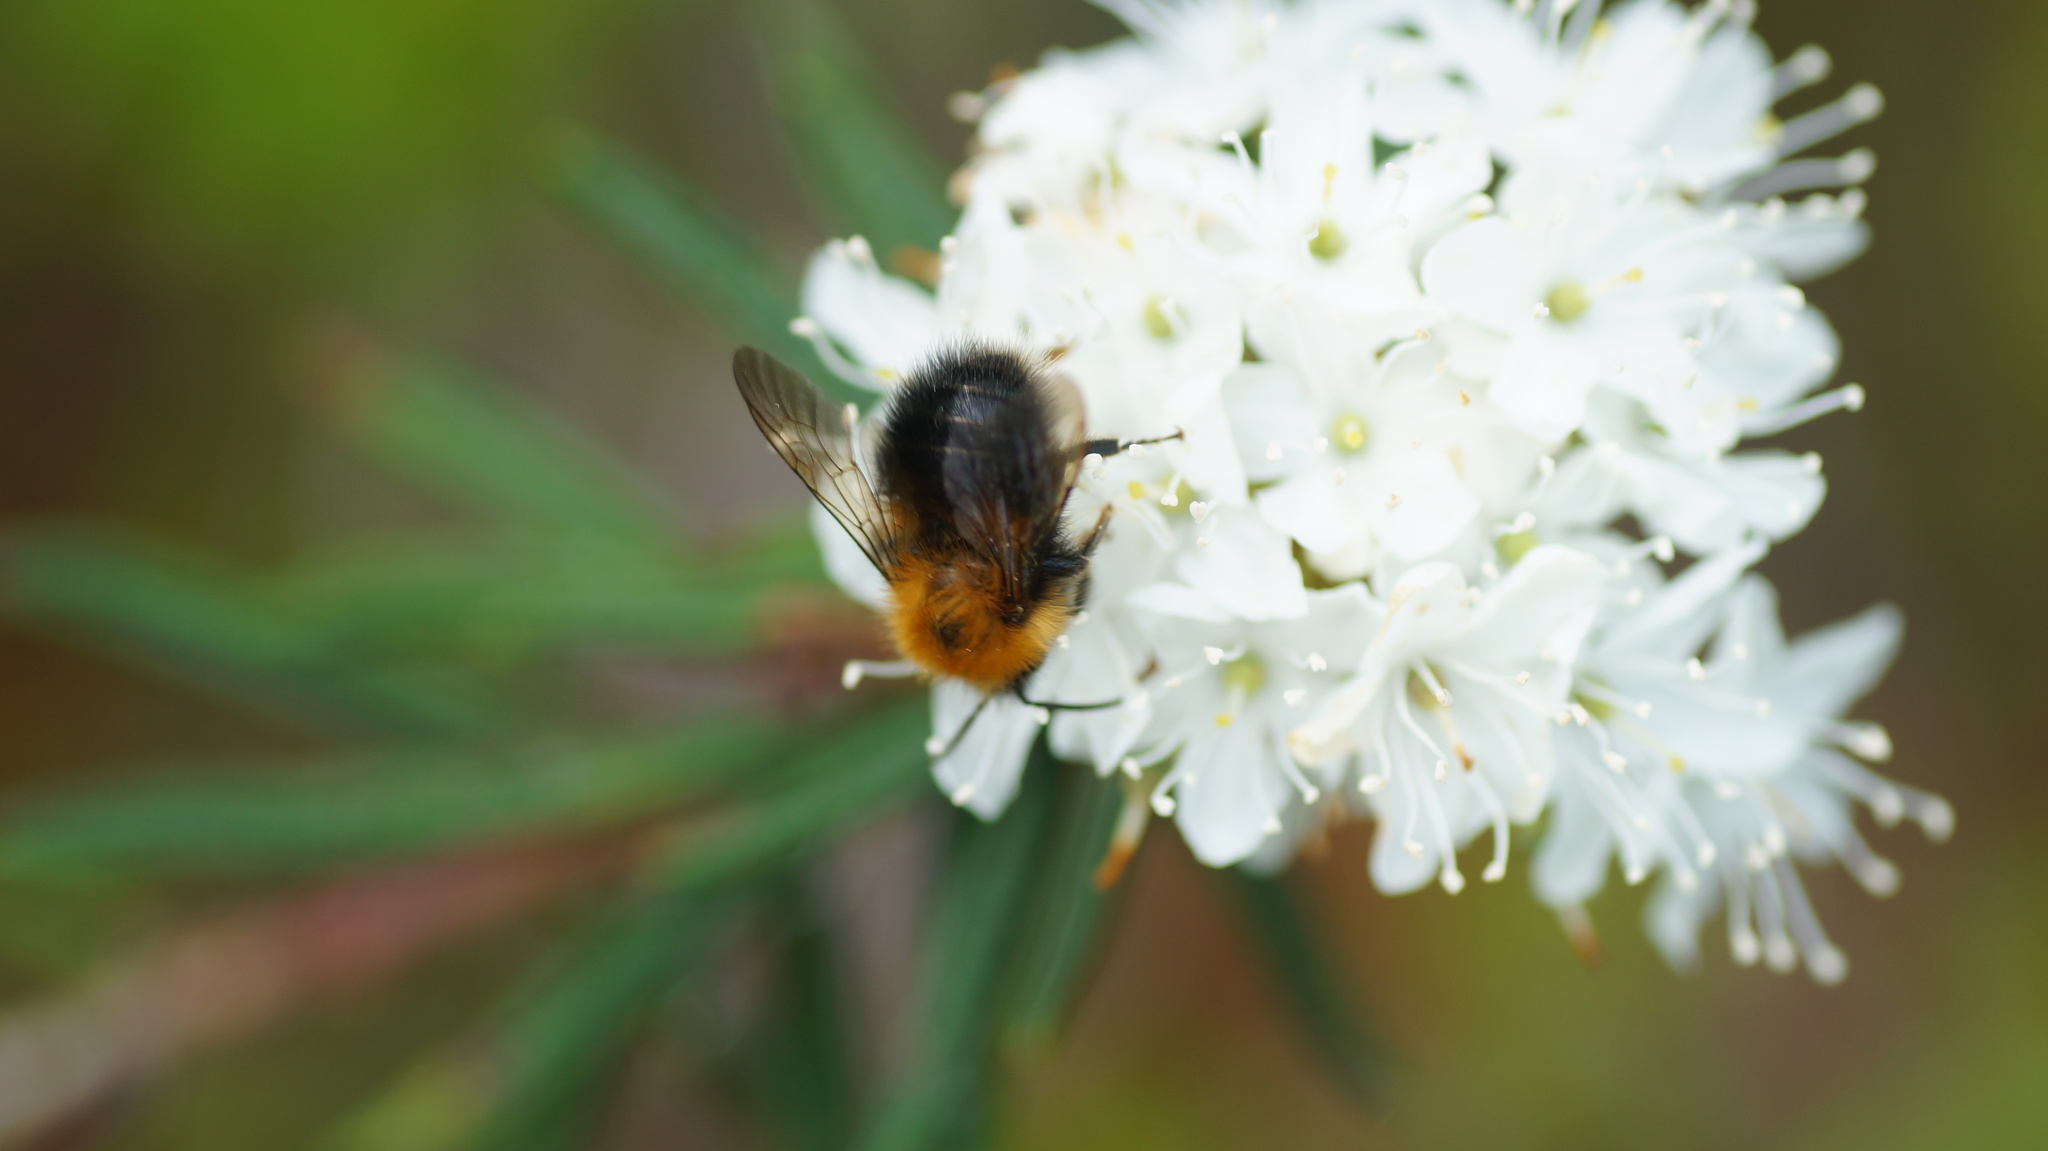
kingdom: Animalia
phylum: Arthropoda
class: Insecta
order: Hymenoptera
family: Apidae
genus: Bombus
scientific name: Bombus hypnorum
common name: New garden bumblebee
